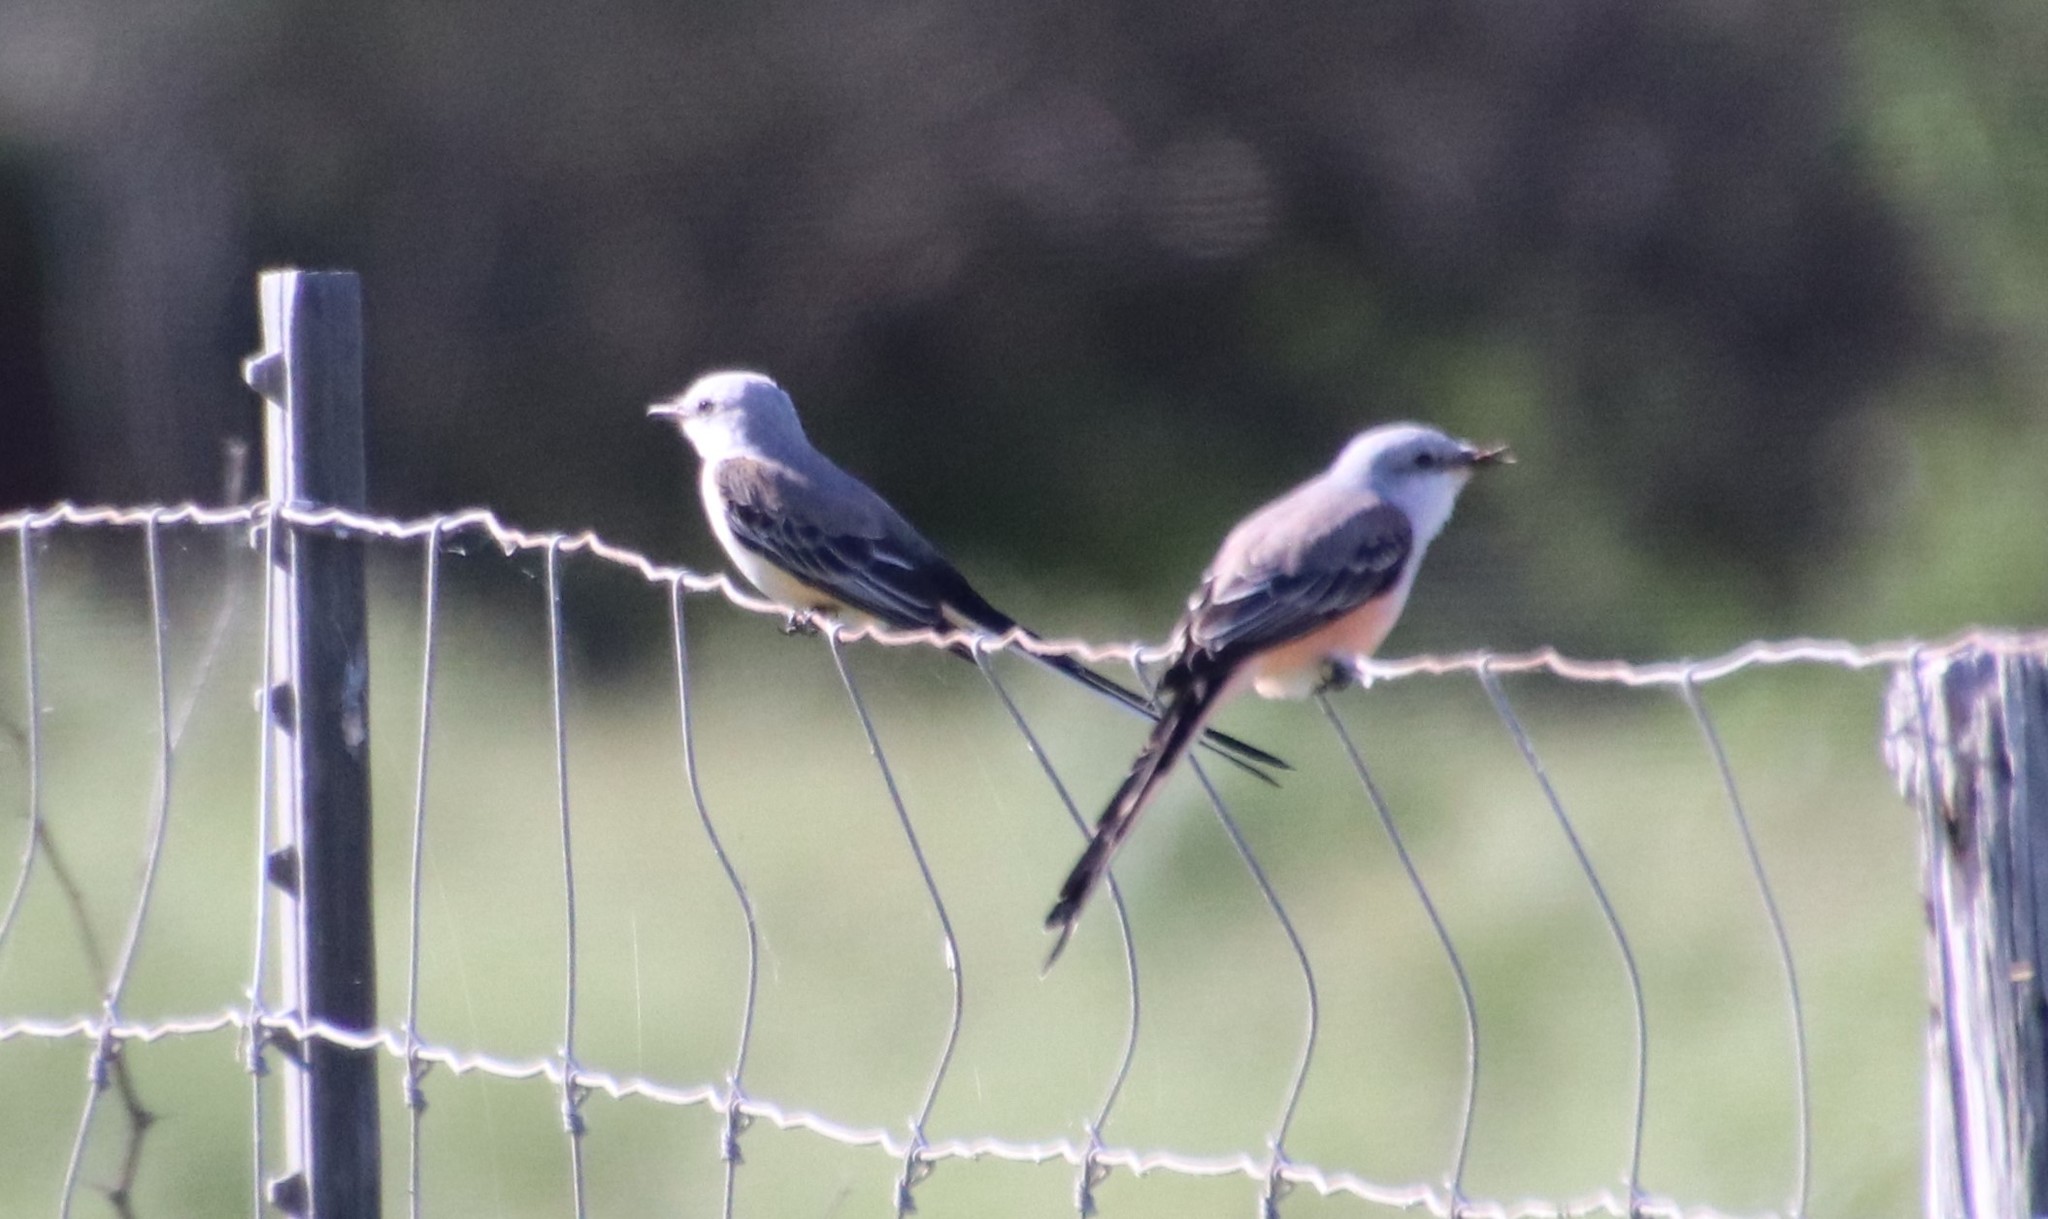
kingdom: Animalia
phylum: Chordata
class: Aves
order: Passeriformes
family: Tyrannidae
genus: Tyrannus
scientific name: Tyrannus forficatus
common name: Scissor-tailed flycatcher
